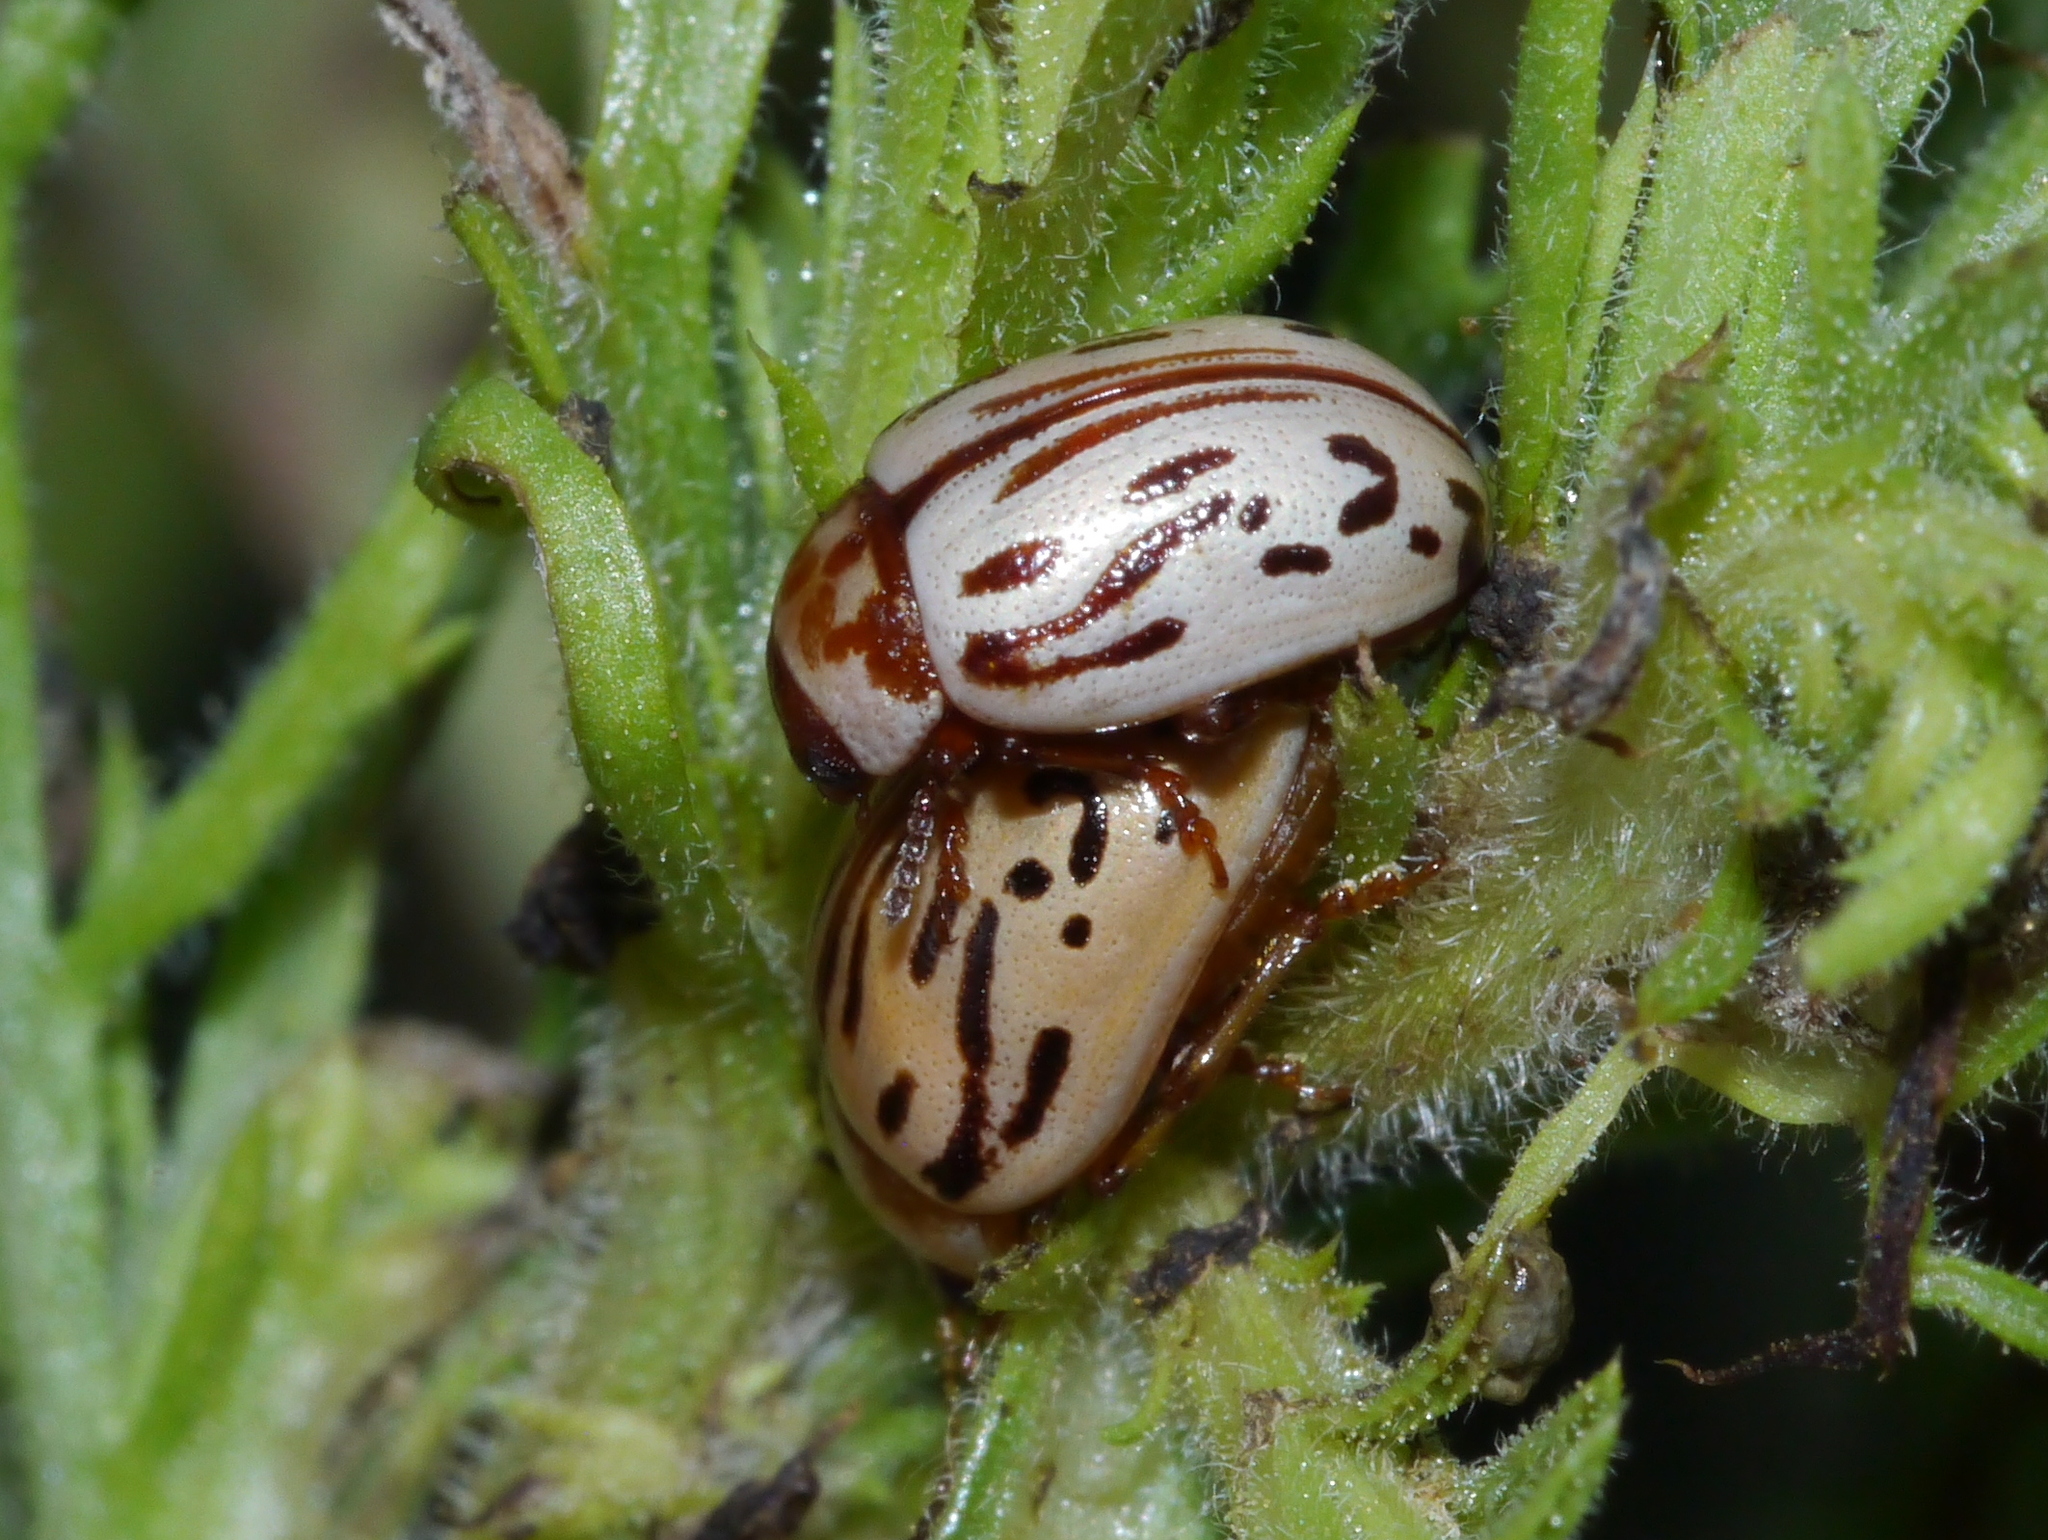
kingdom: Animalia
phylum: Arthropoda
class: Insecta
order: Coleoptera
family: Chrysomelidae
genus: Calligrapha
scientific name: Calligrapha
